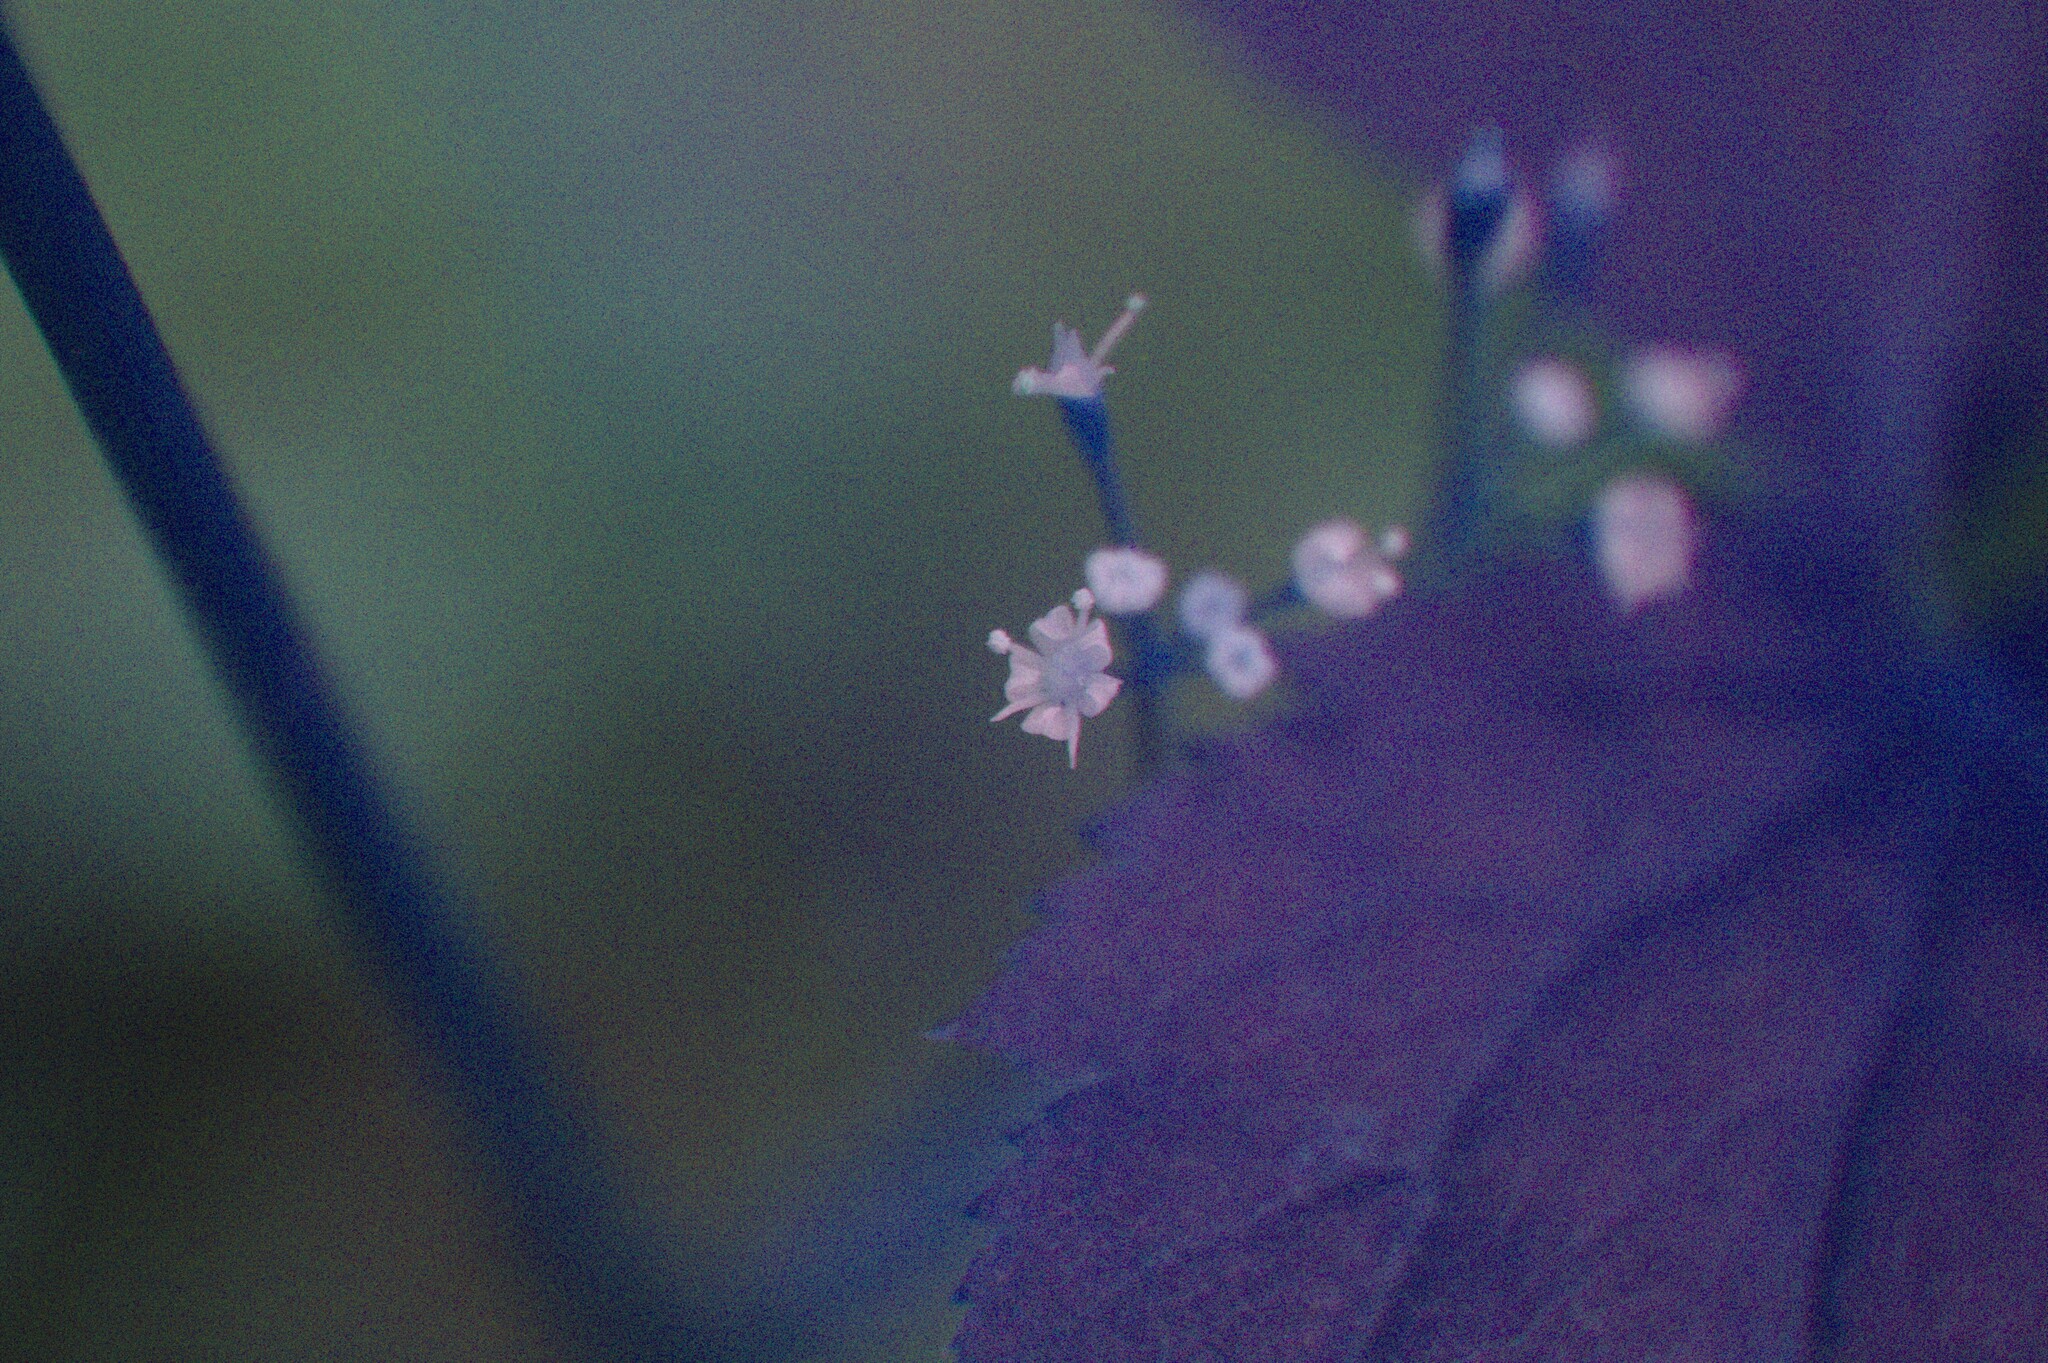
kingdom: Plantae
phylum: Tracheophyta
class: Magnoliopsida
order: Apiales
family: Apiaceae
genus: Cryptotaenia
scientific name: Cryptotaenia canadensis
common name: Honewort
